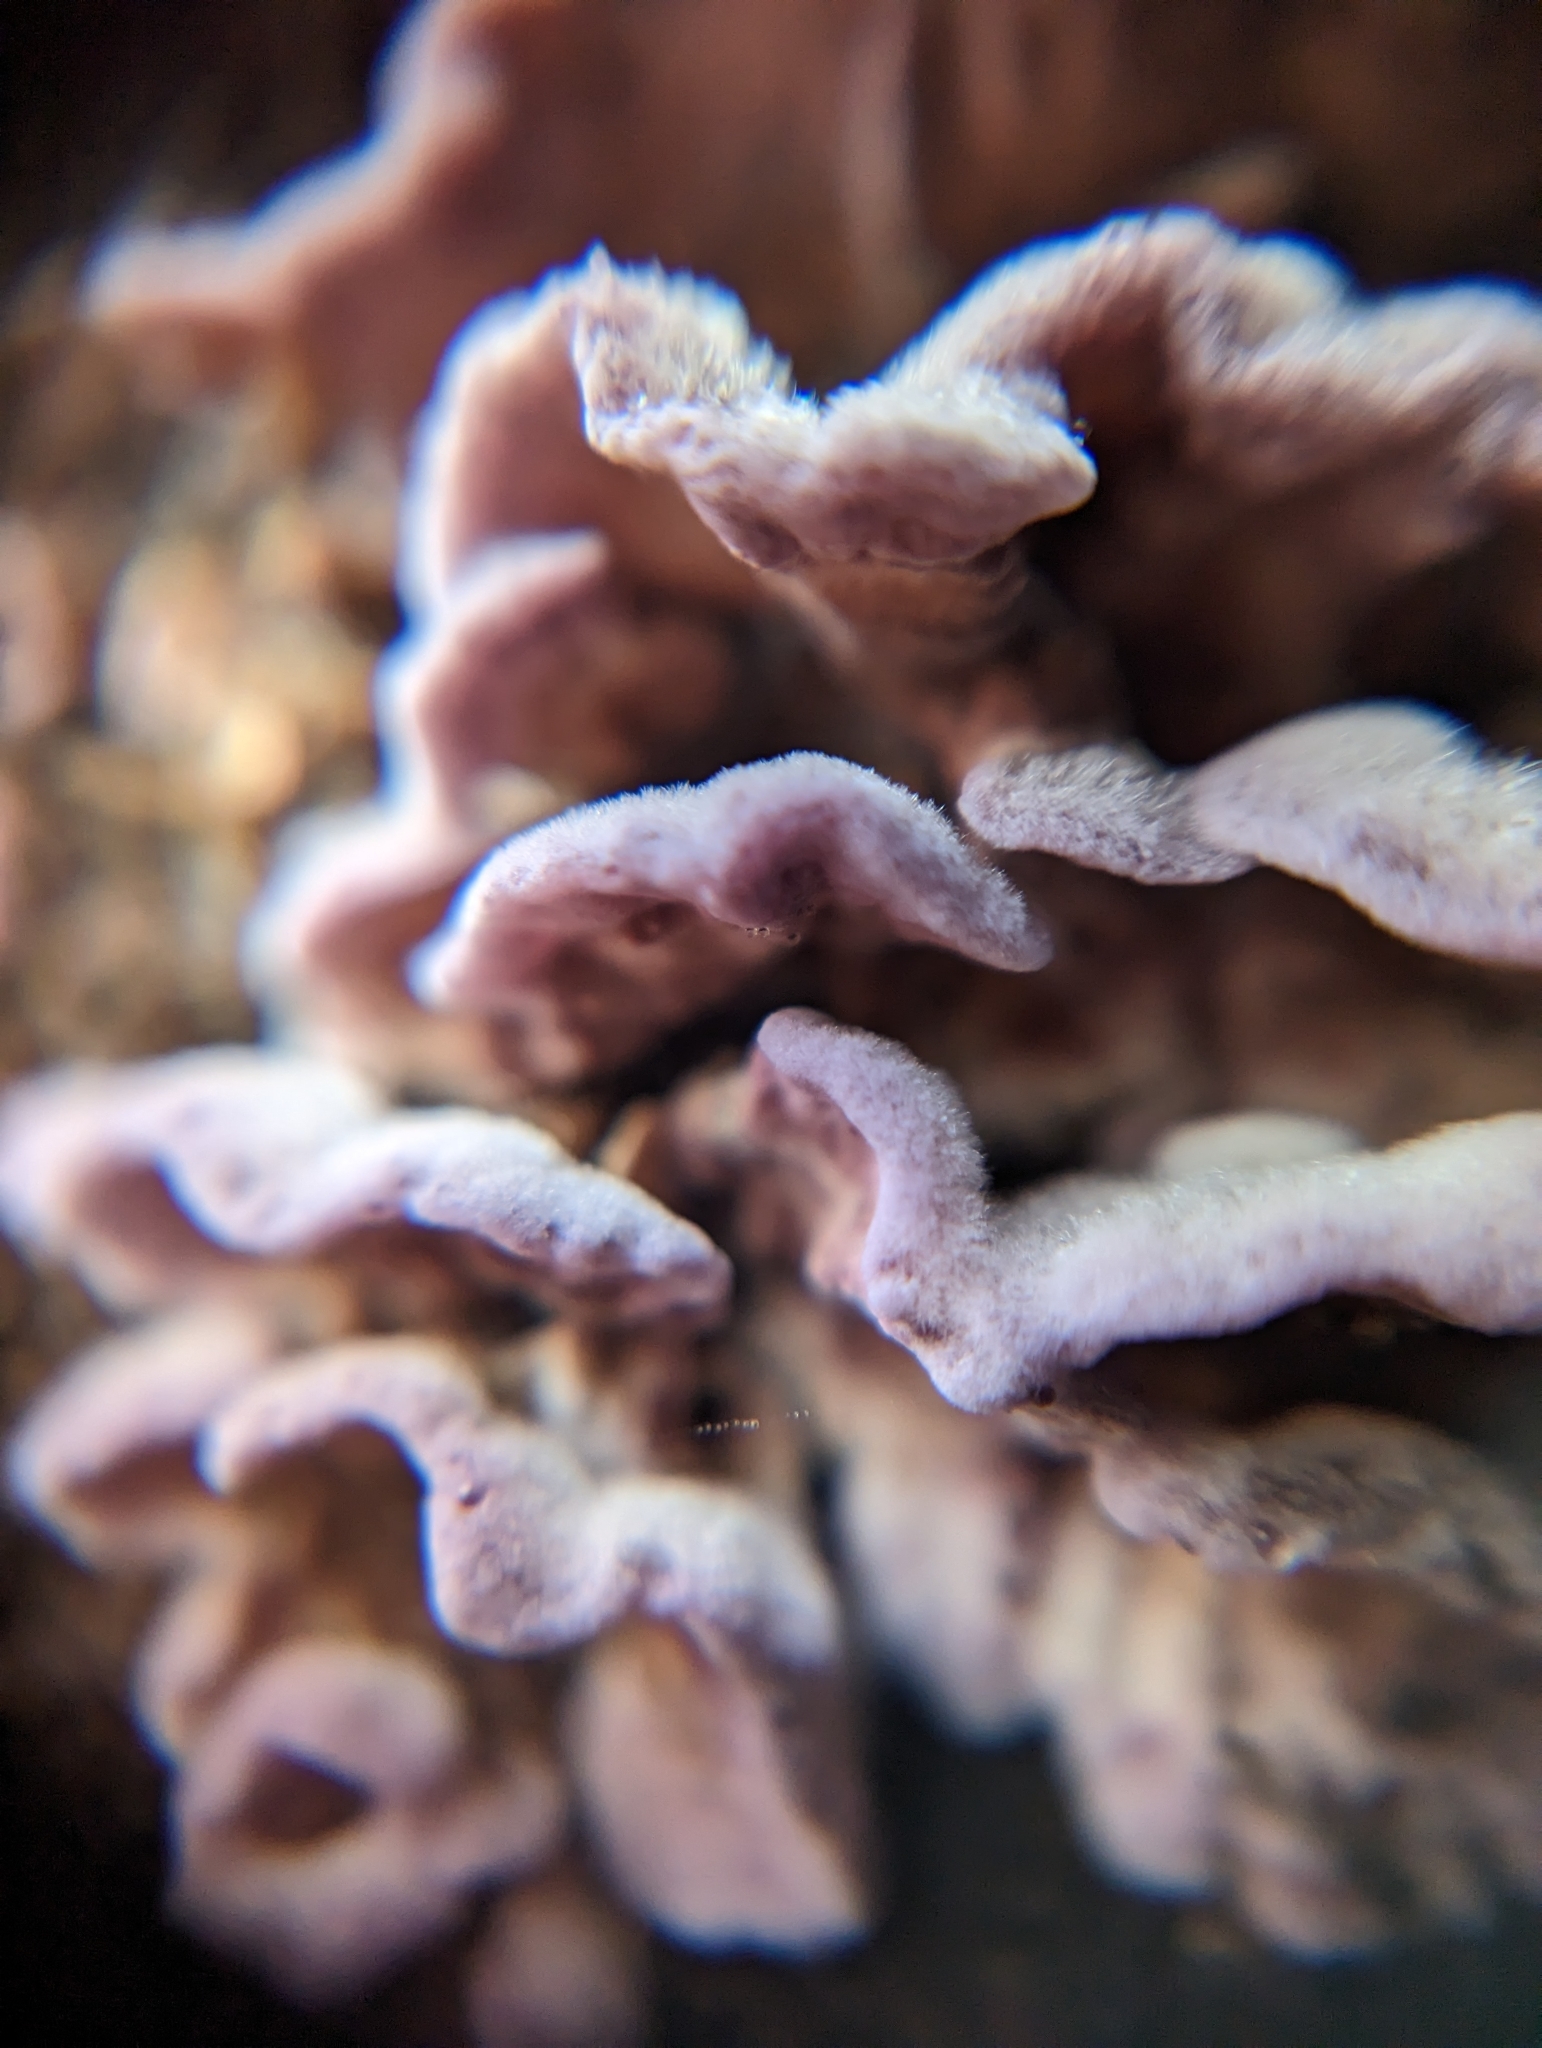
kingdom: Fungi
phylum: Basidiomycota
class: Agaricomycetes
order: Agaricales
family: Cyphellaceae
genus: Chondrostereum
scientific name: Chondrostereum purpureum
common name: Silver leaf disease
